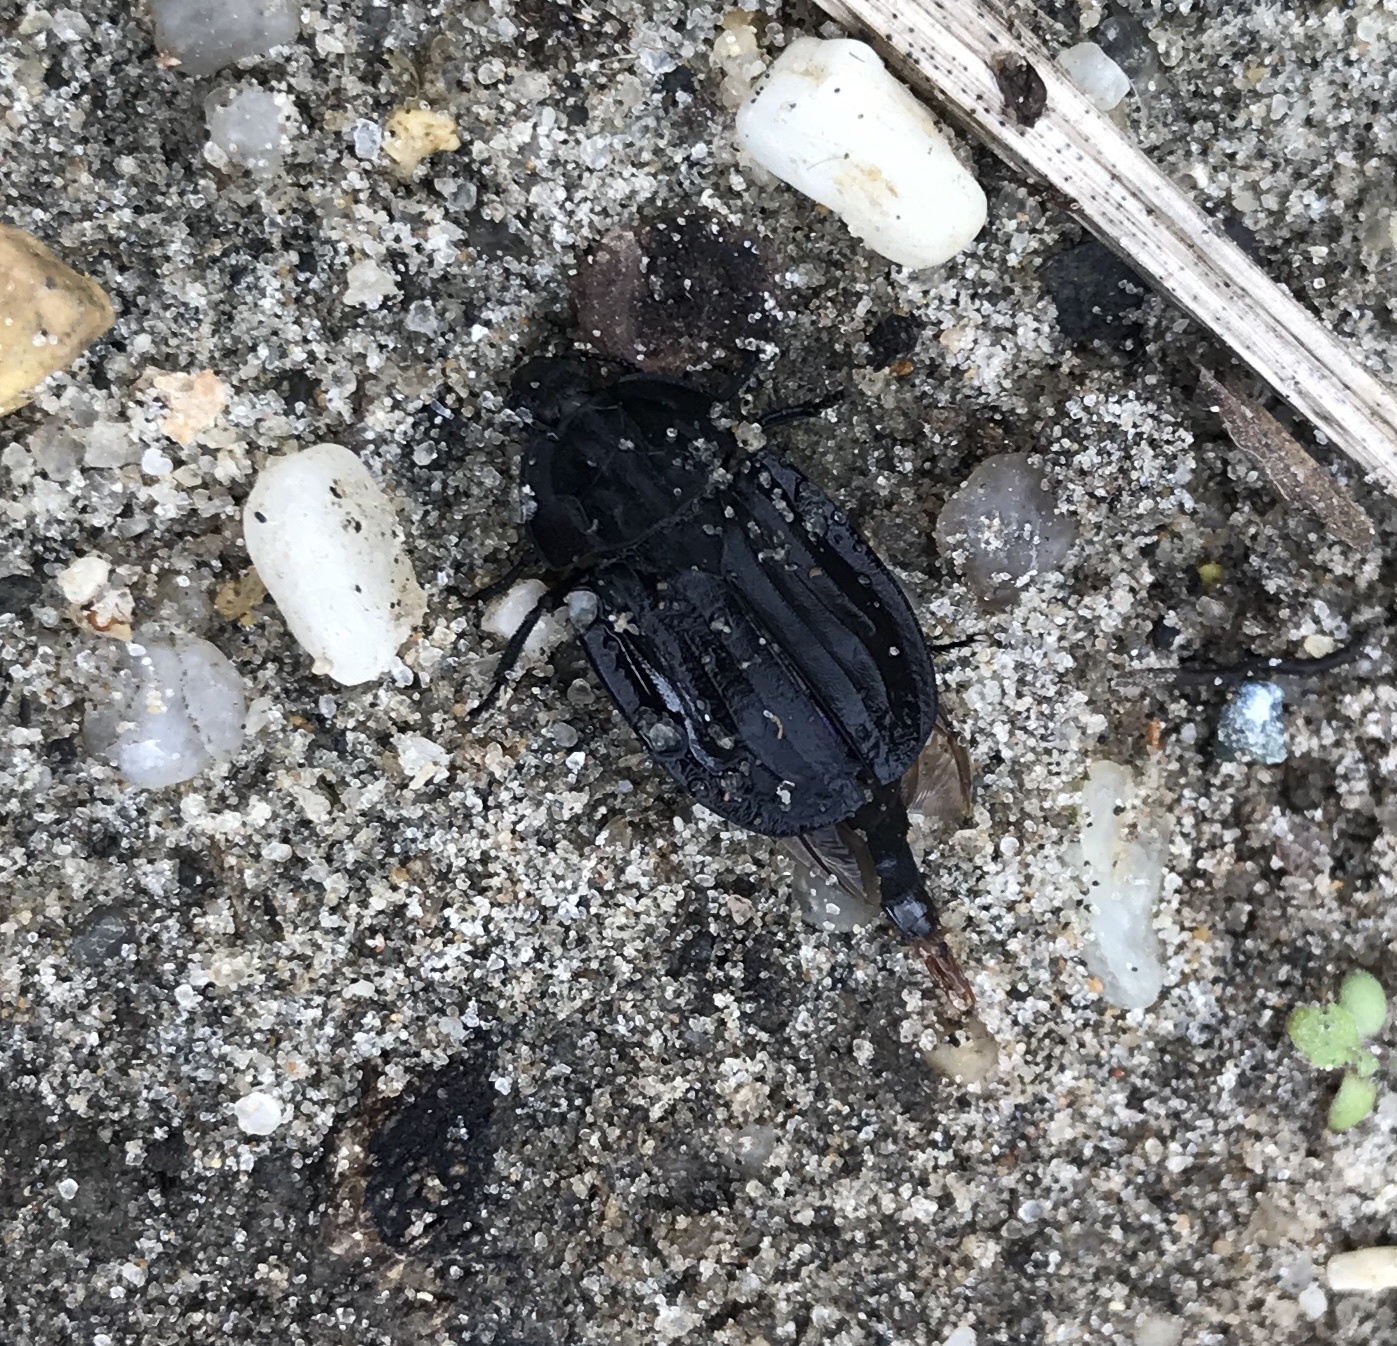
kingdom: Animalia
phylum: Arthropoda
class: Insecta
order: Coleoptera
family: Staphylinidae
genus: Oiceoptoma
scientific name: Oiceoptoma inaequale
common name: Ridged carrion beetle
